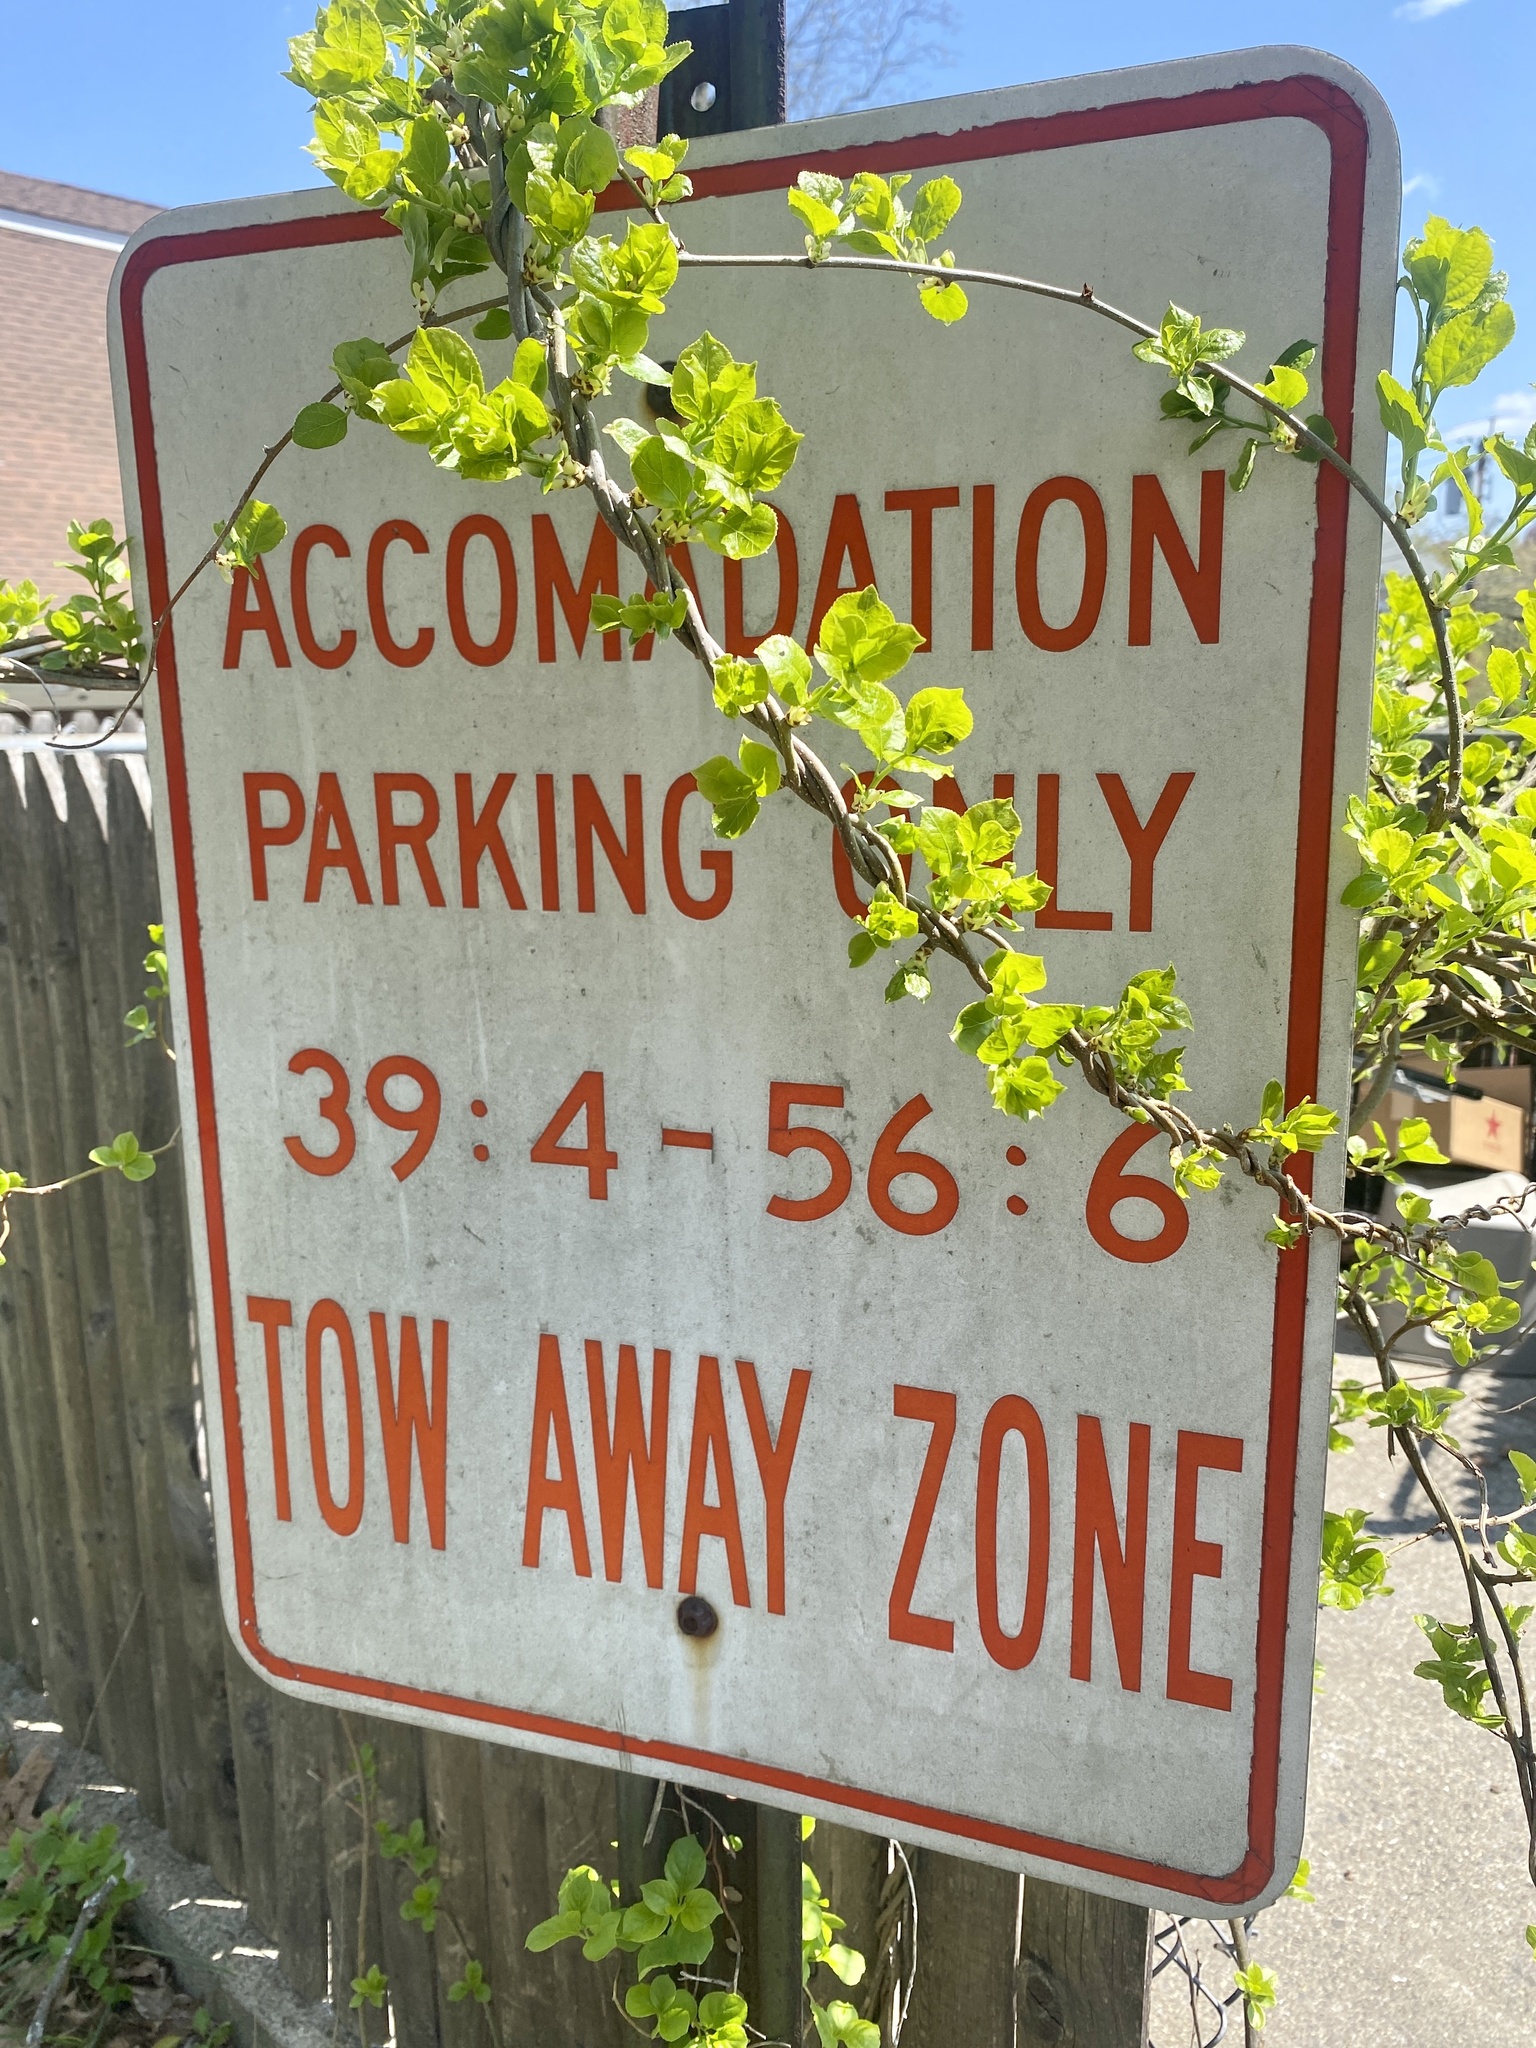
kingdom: Plantae
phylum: Tracheophyta
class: Magnoliopsida
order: Celastrales
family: Celastraceae
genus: Celastrus
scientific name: Celastrus orbiculatus
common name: Oriental bittersweet
